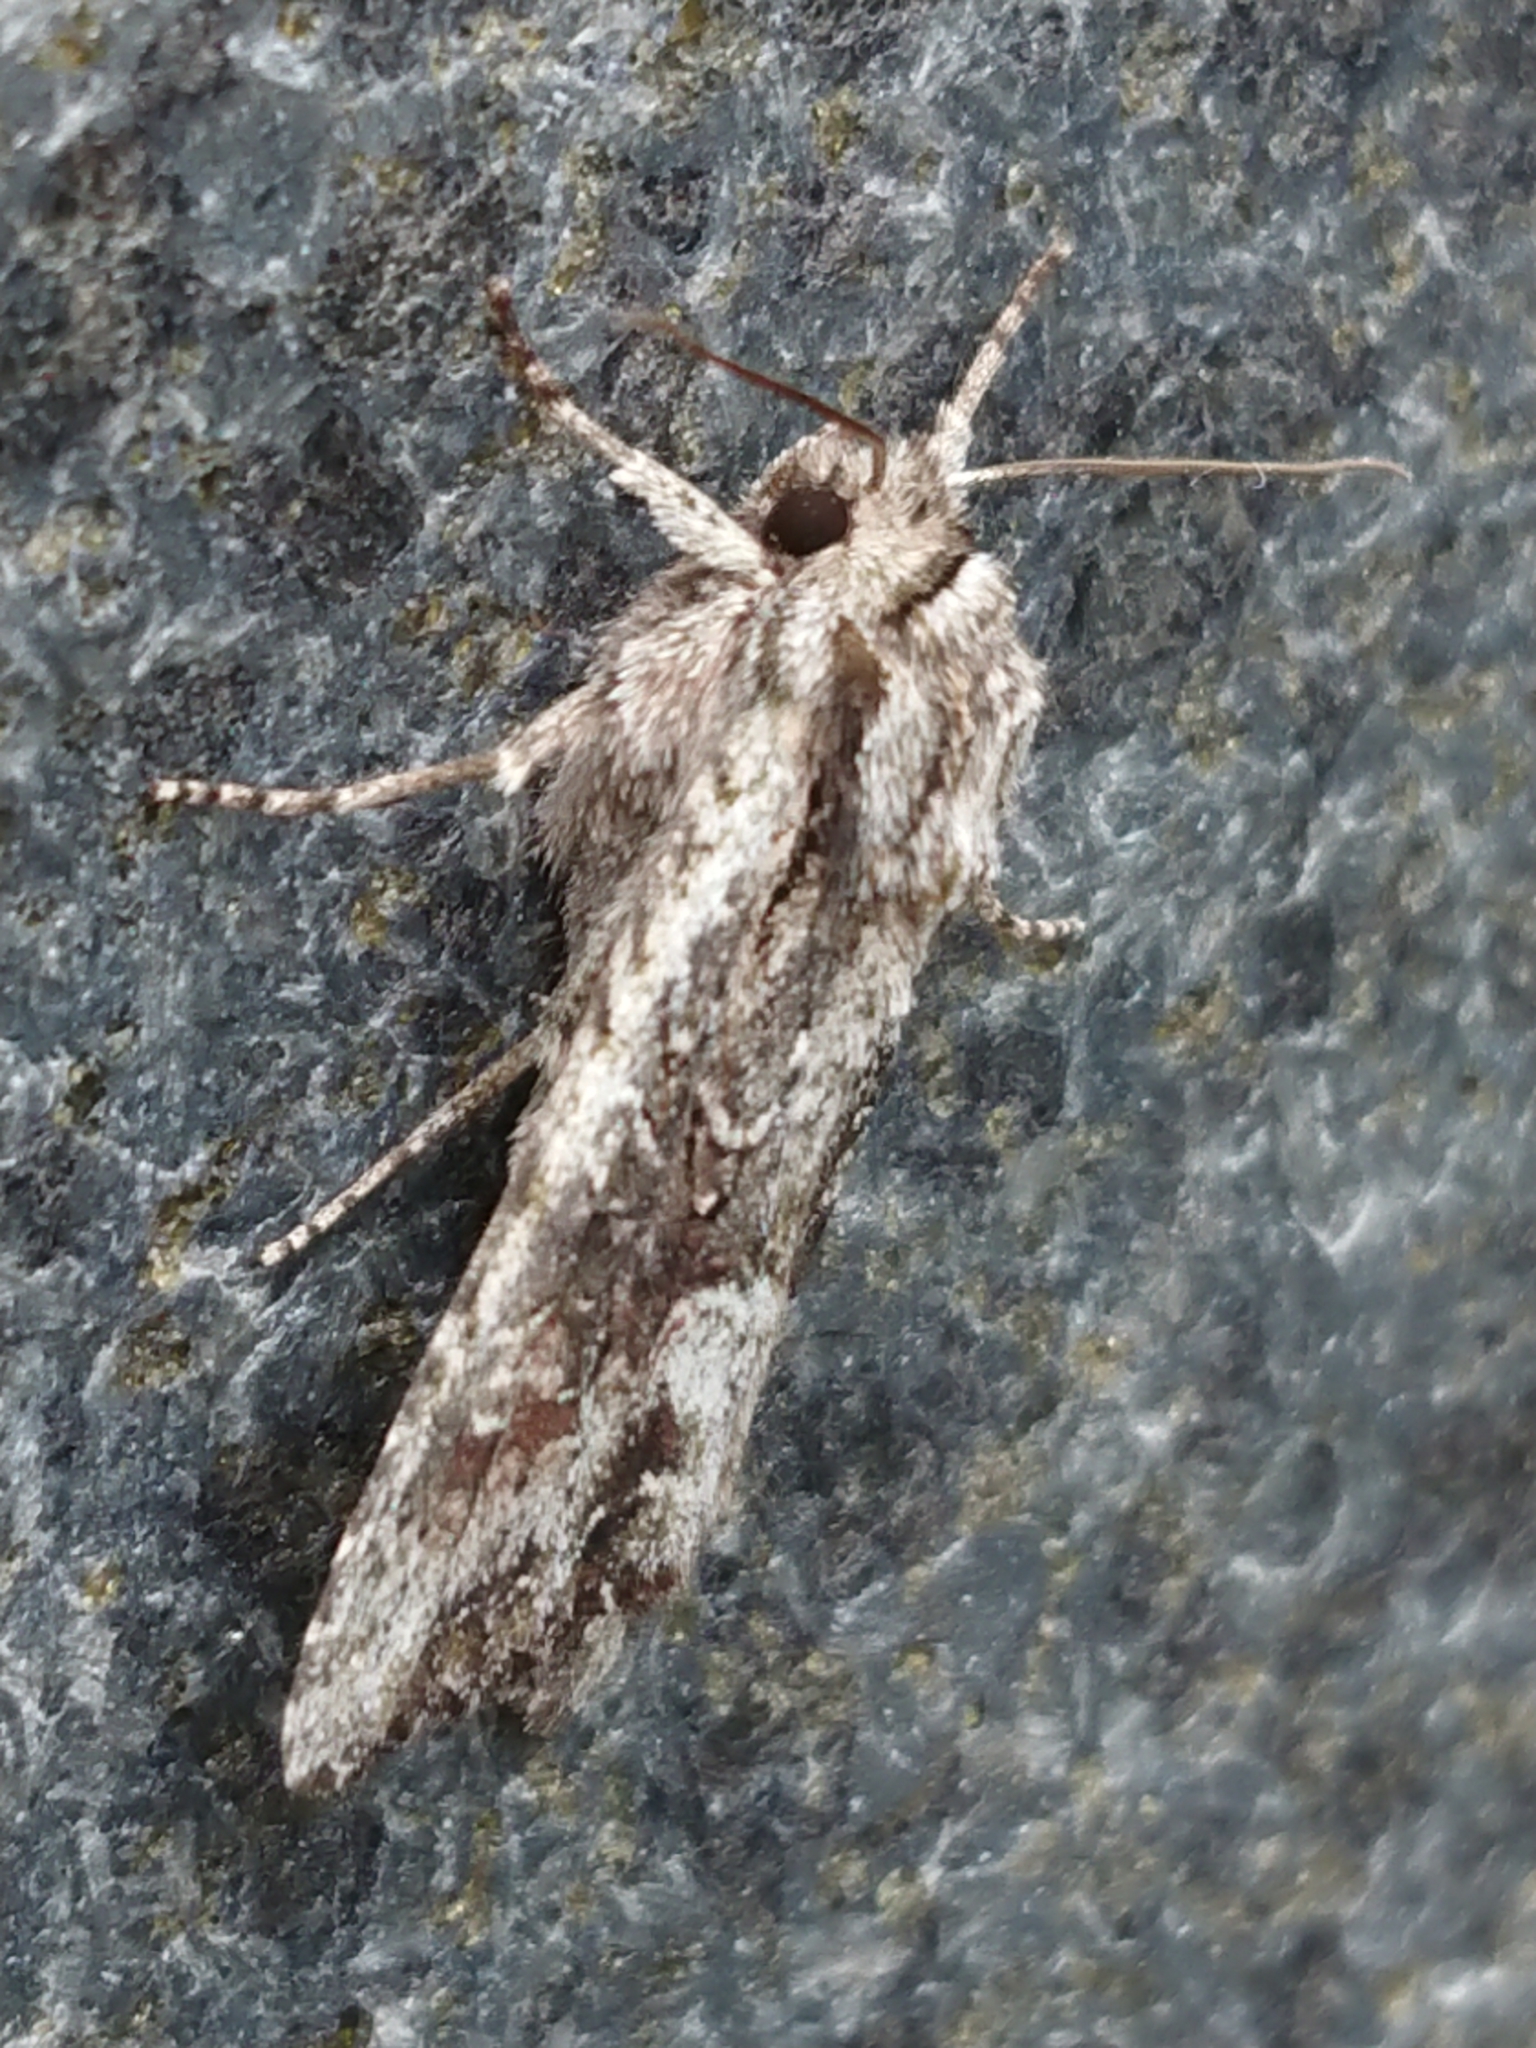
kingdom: Animalia
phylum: Arthropoda
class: Insecta
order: Lepidoptera
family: Noctuidae
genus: Ichneutica
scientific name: Ichneutica mutans
